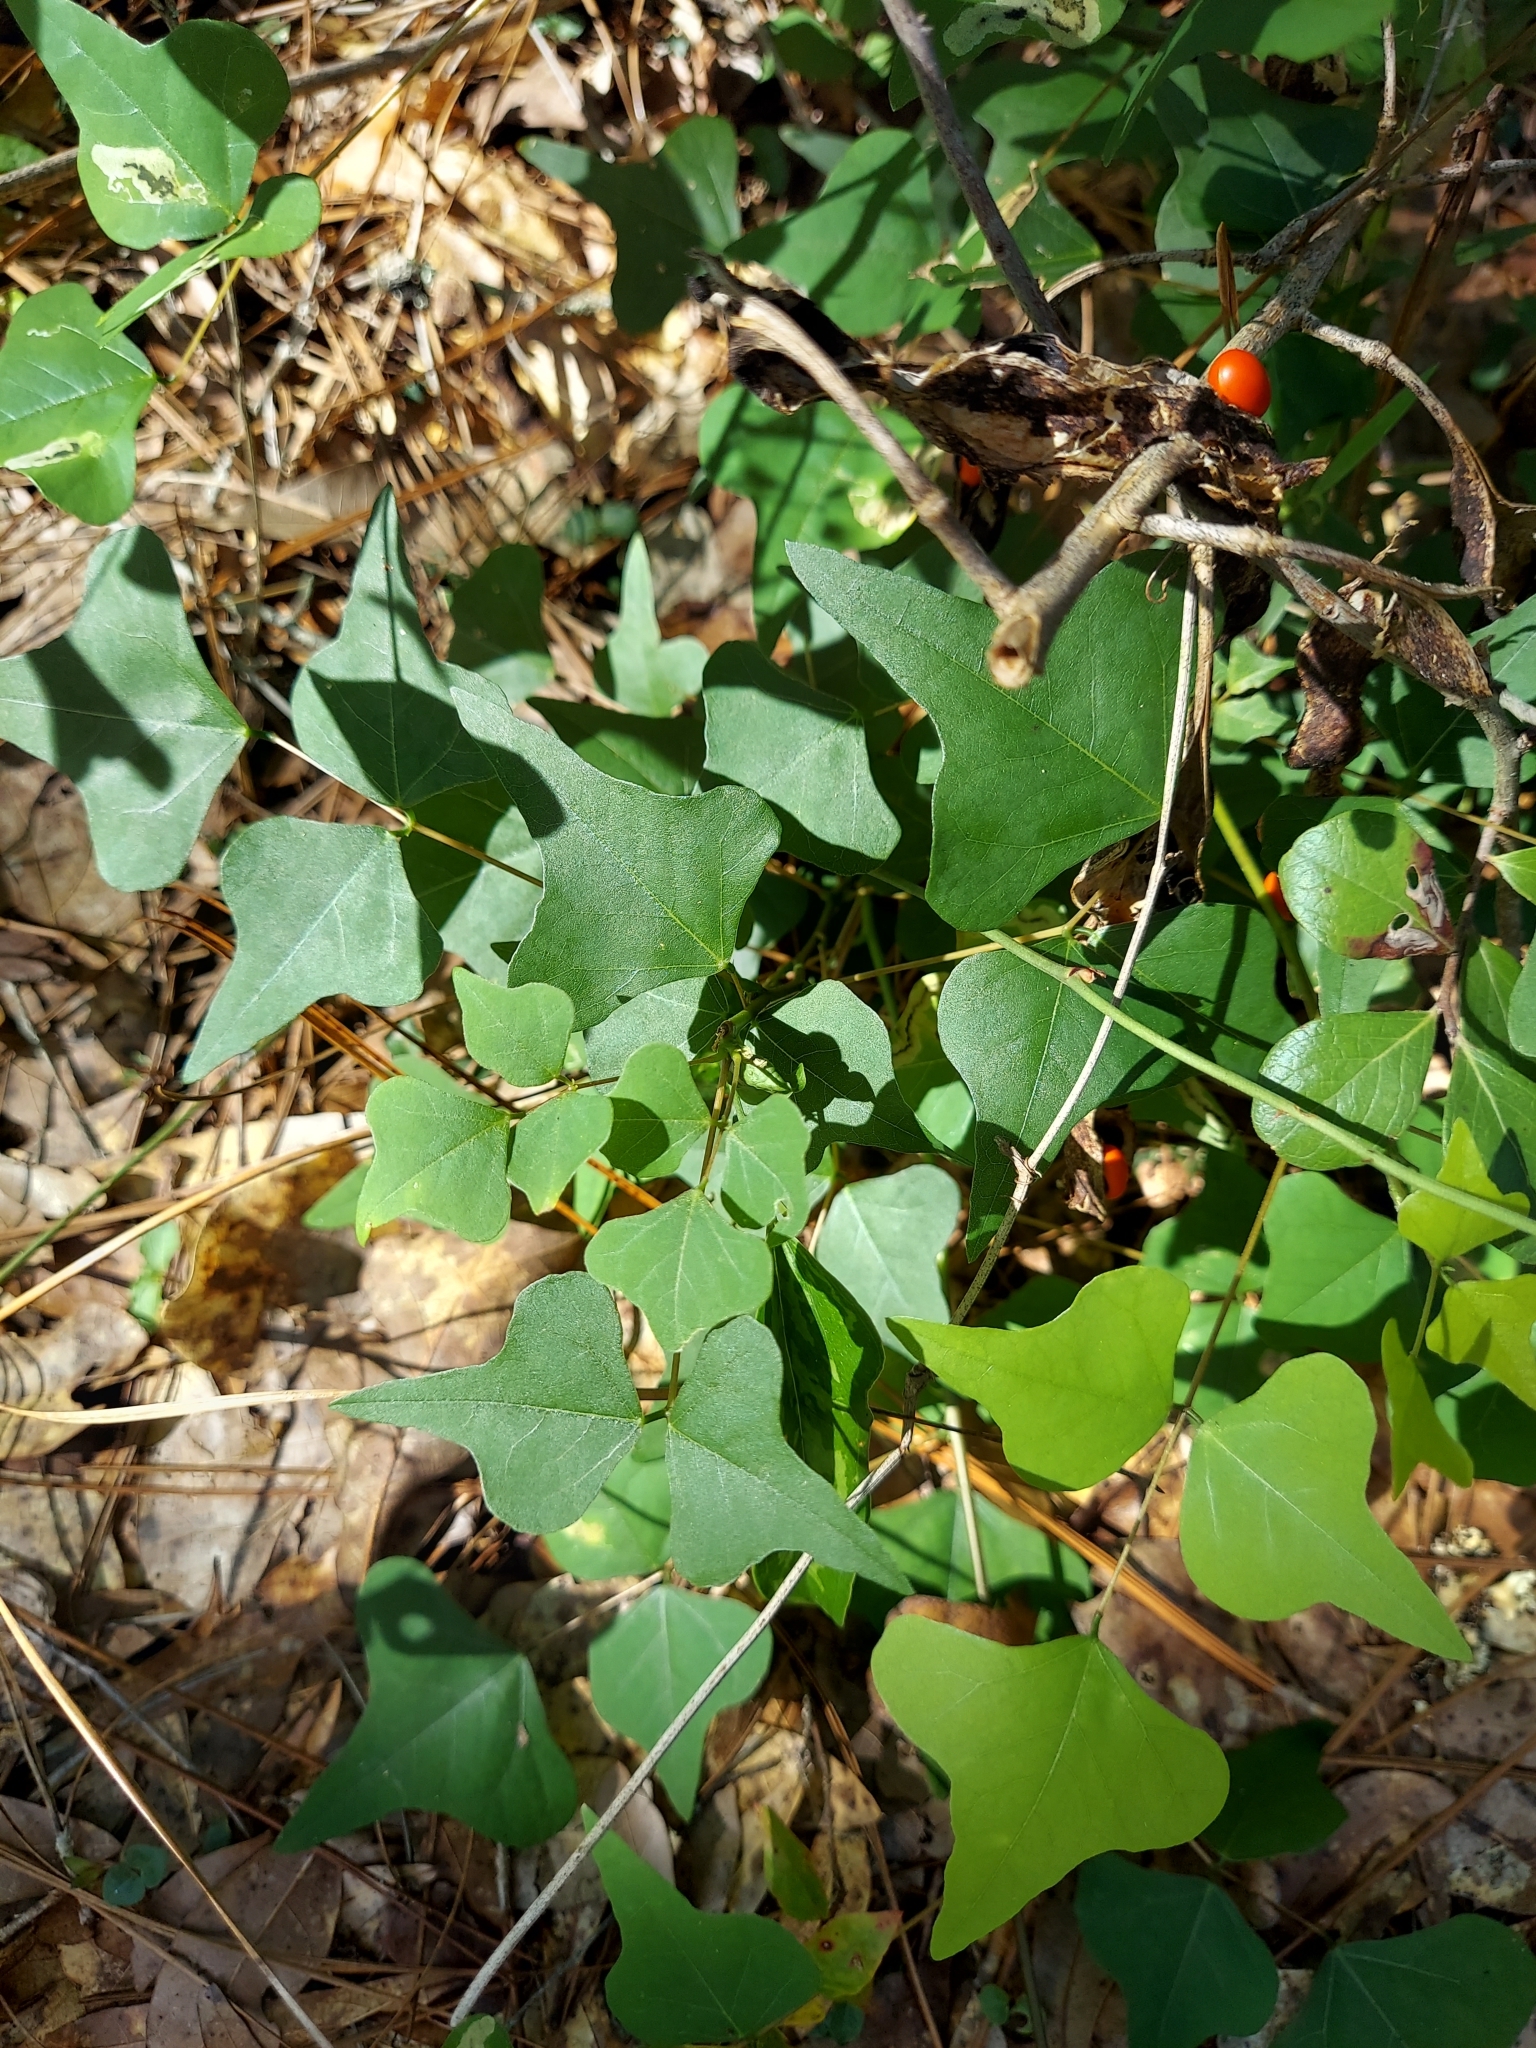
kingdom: Plantae
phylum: Tracheophyta
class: Magnoliopsida
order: Fabales
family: Fabaceae
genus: Erythrina
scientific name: Erythrina herbacea
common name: Coral-bean
